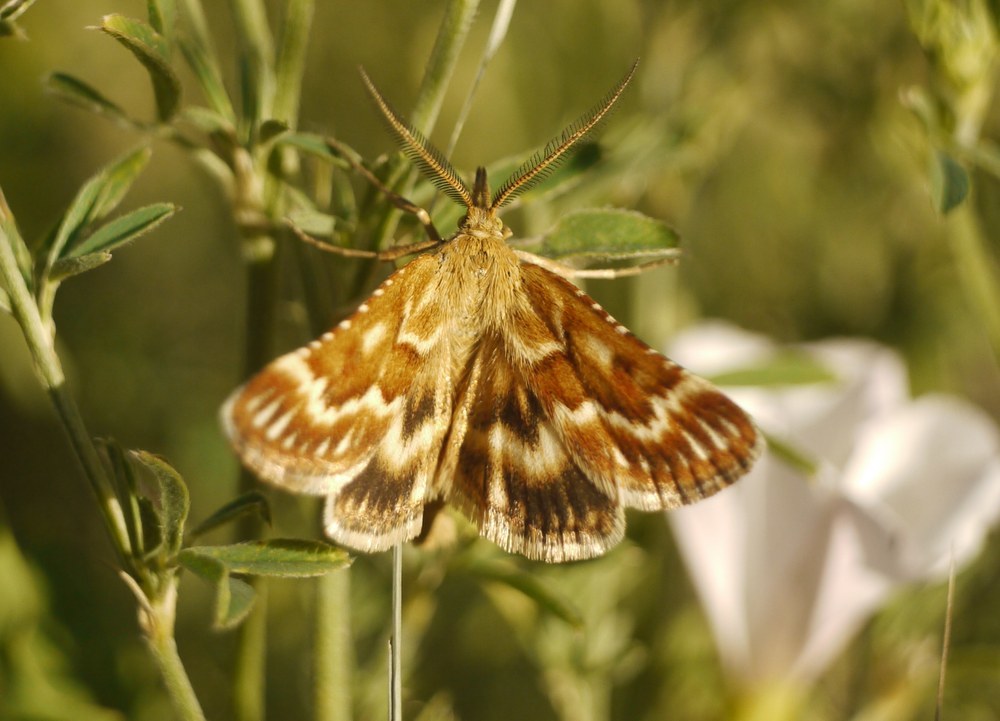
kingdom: Animalia
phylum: Arthropoda
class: Insecta
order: Lepidoptera
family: Pyralidae
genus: Synaphe
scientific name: Synaphe moldavica
